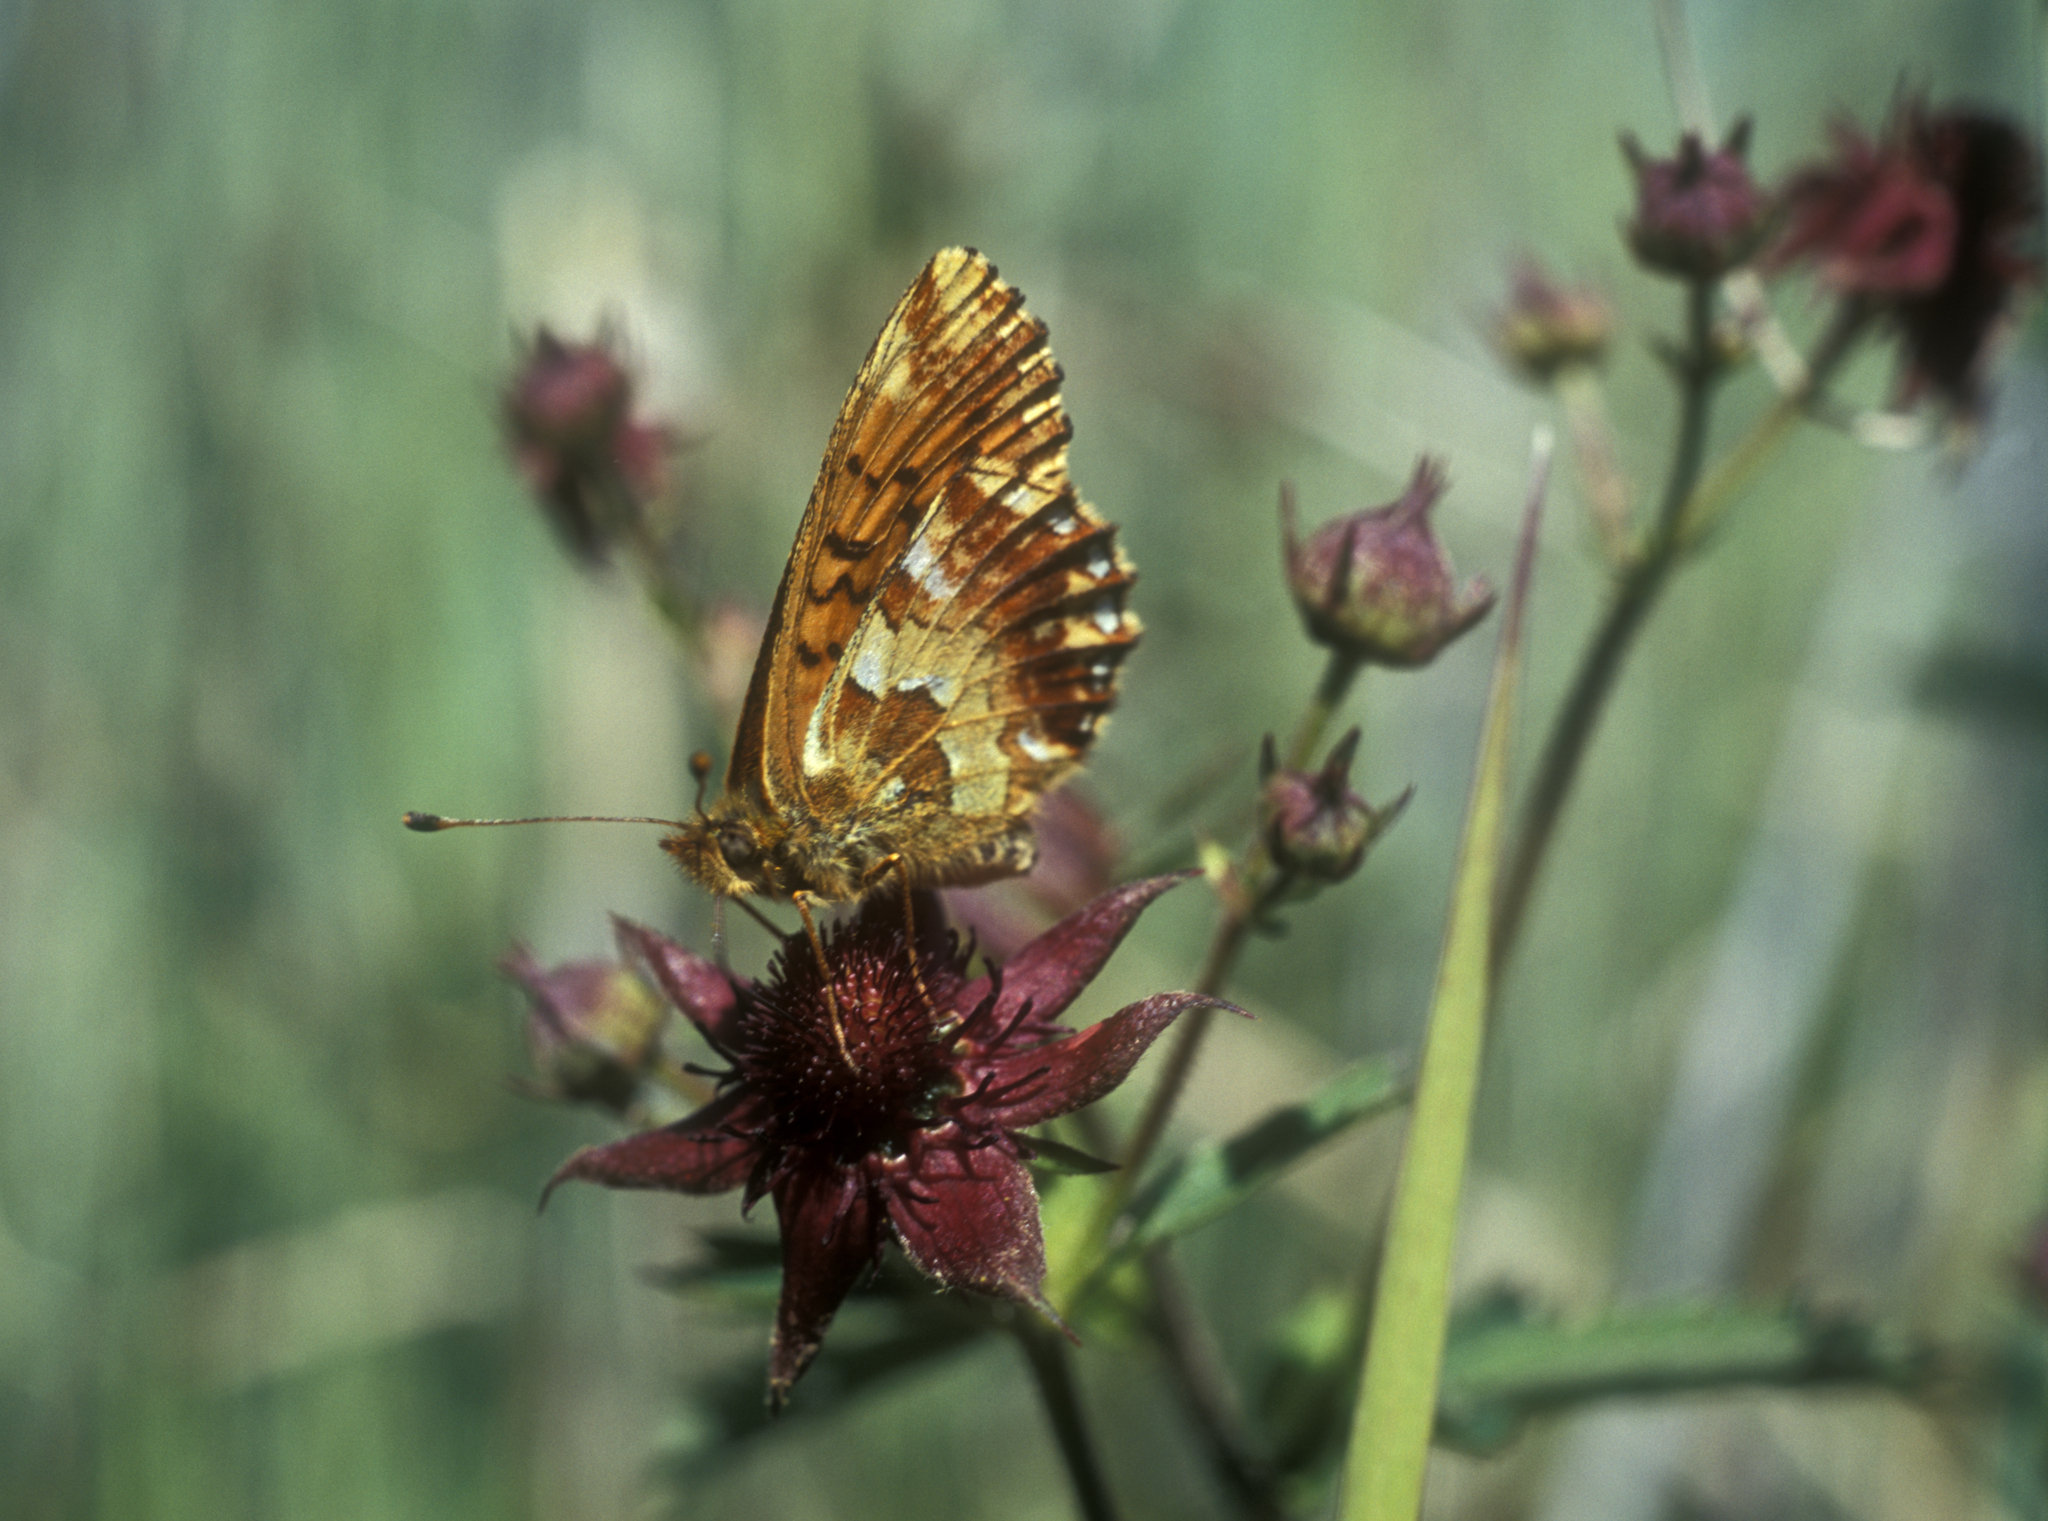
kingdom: Plantae
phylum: Tracheophyta
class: Magnoliopsida
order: Rosales
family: Rosaceae
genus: Comarum
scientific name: Comarum palustre
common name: Marsh cinquefoil
